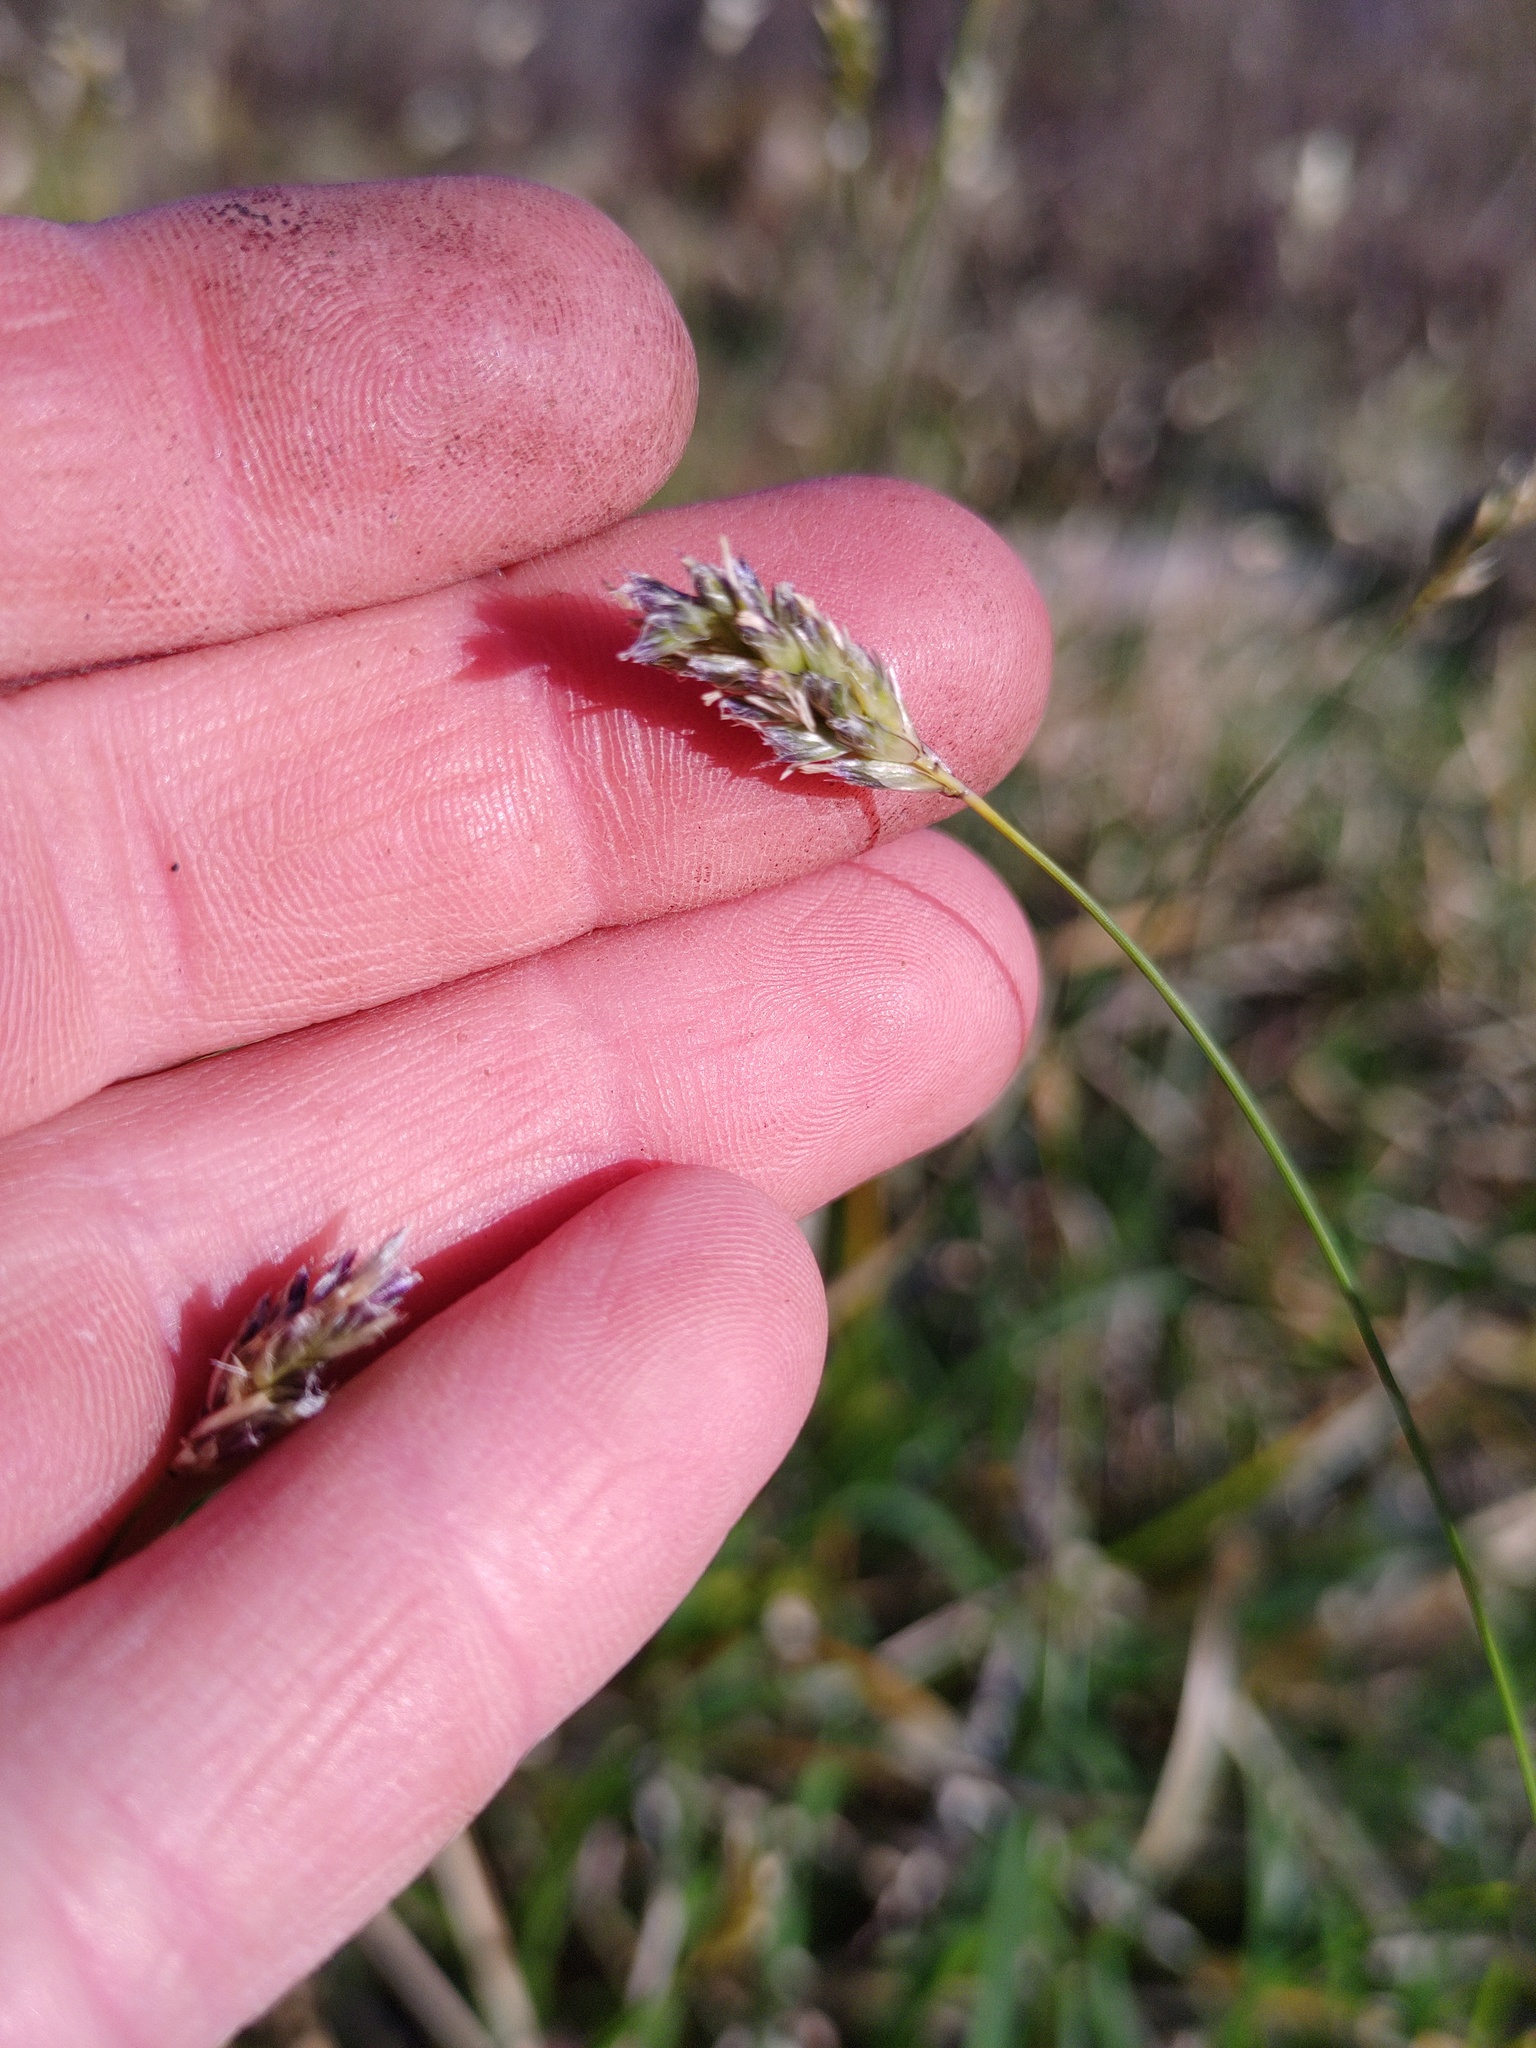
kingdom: Plantae
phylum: Tracheophyta
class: Liliopsida
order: Poales
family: Poaceae
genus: Sesleria
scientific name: Sesleria caerulea
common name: Blue moor-grass
